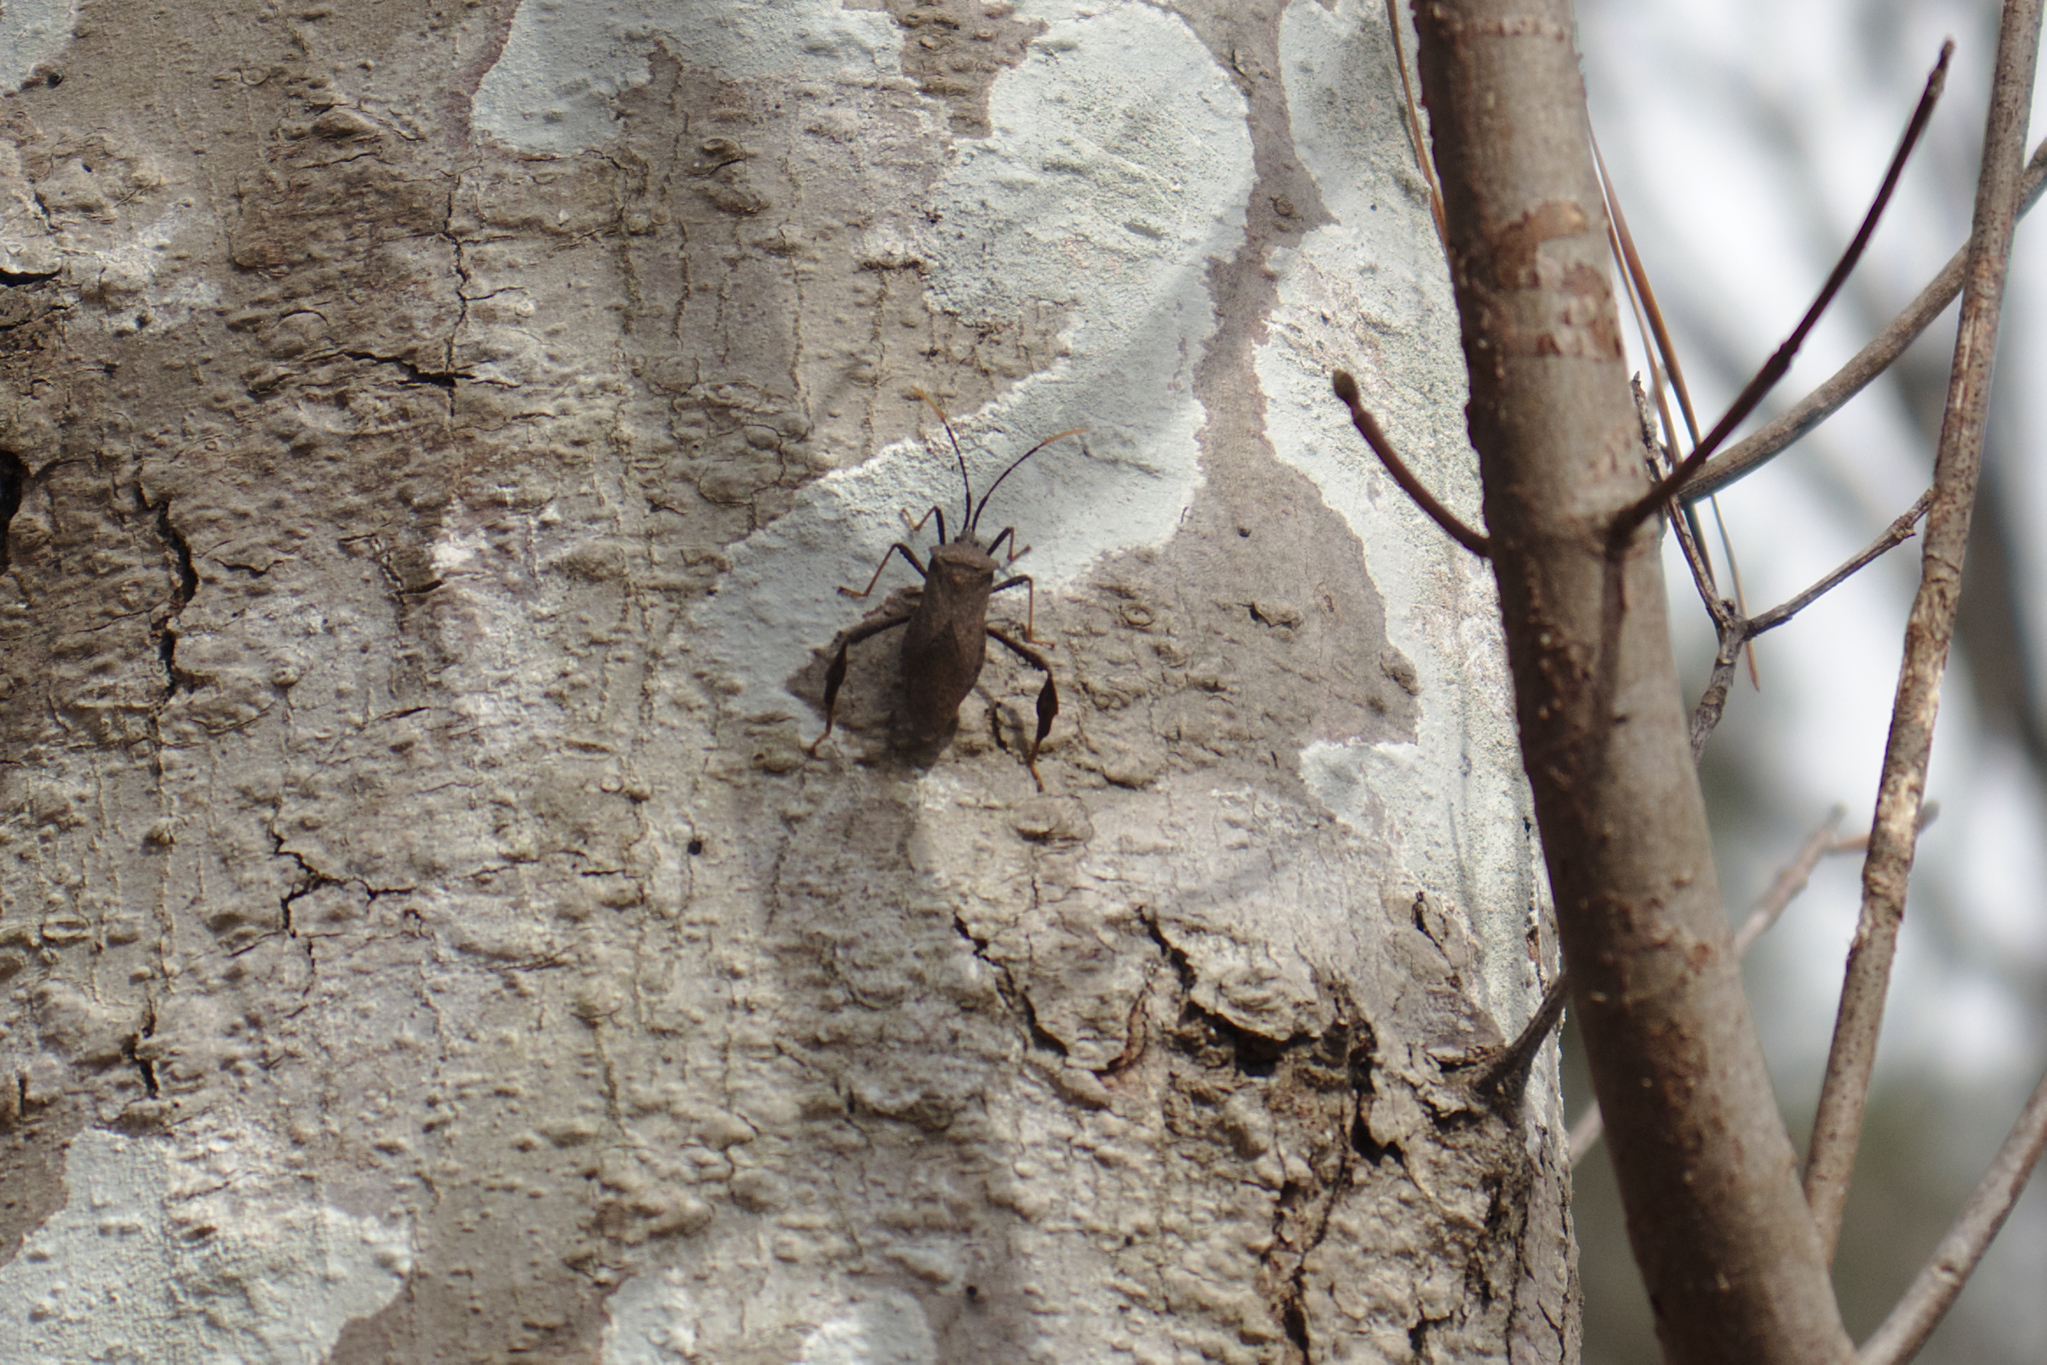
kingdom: Animalia
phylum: Arthropoda
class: Insecta
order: Hemiptera
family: Coreidae
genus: Acanthocephala
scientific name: Acanthocephala terminalis
